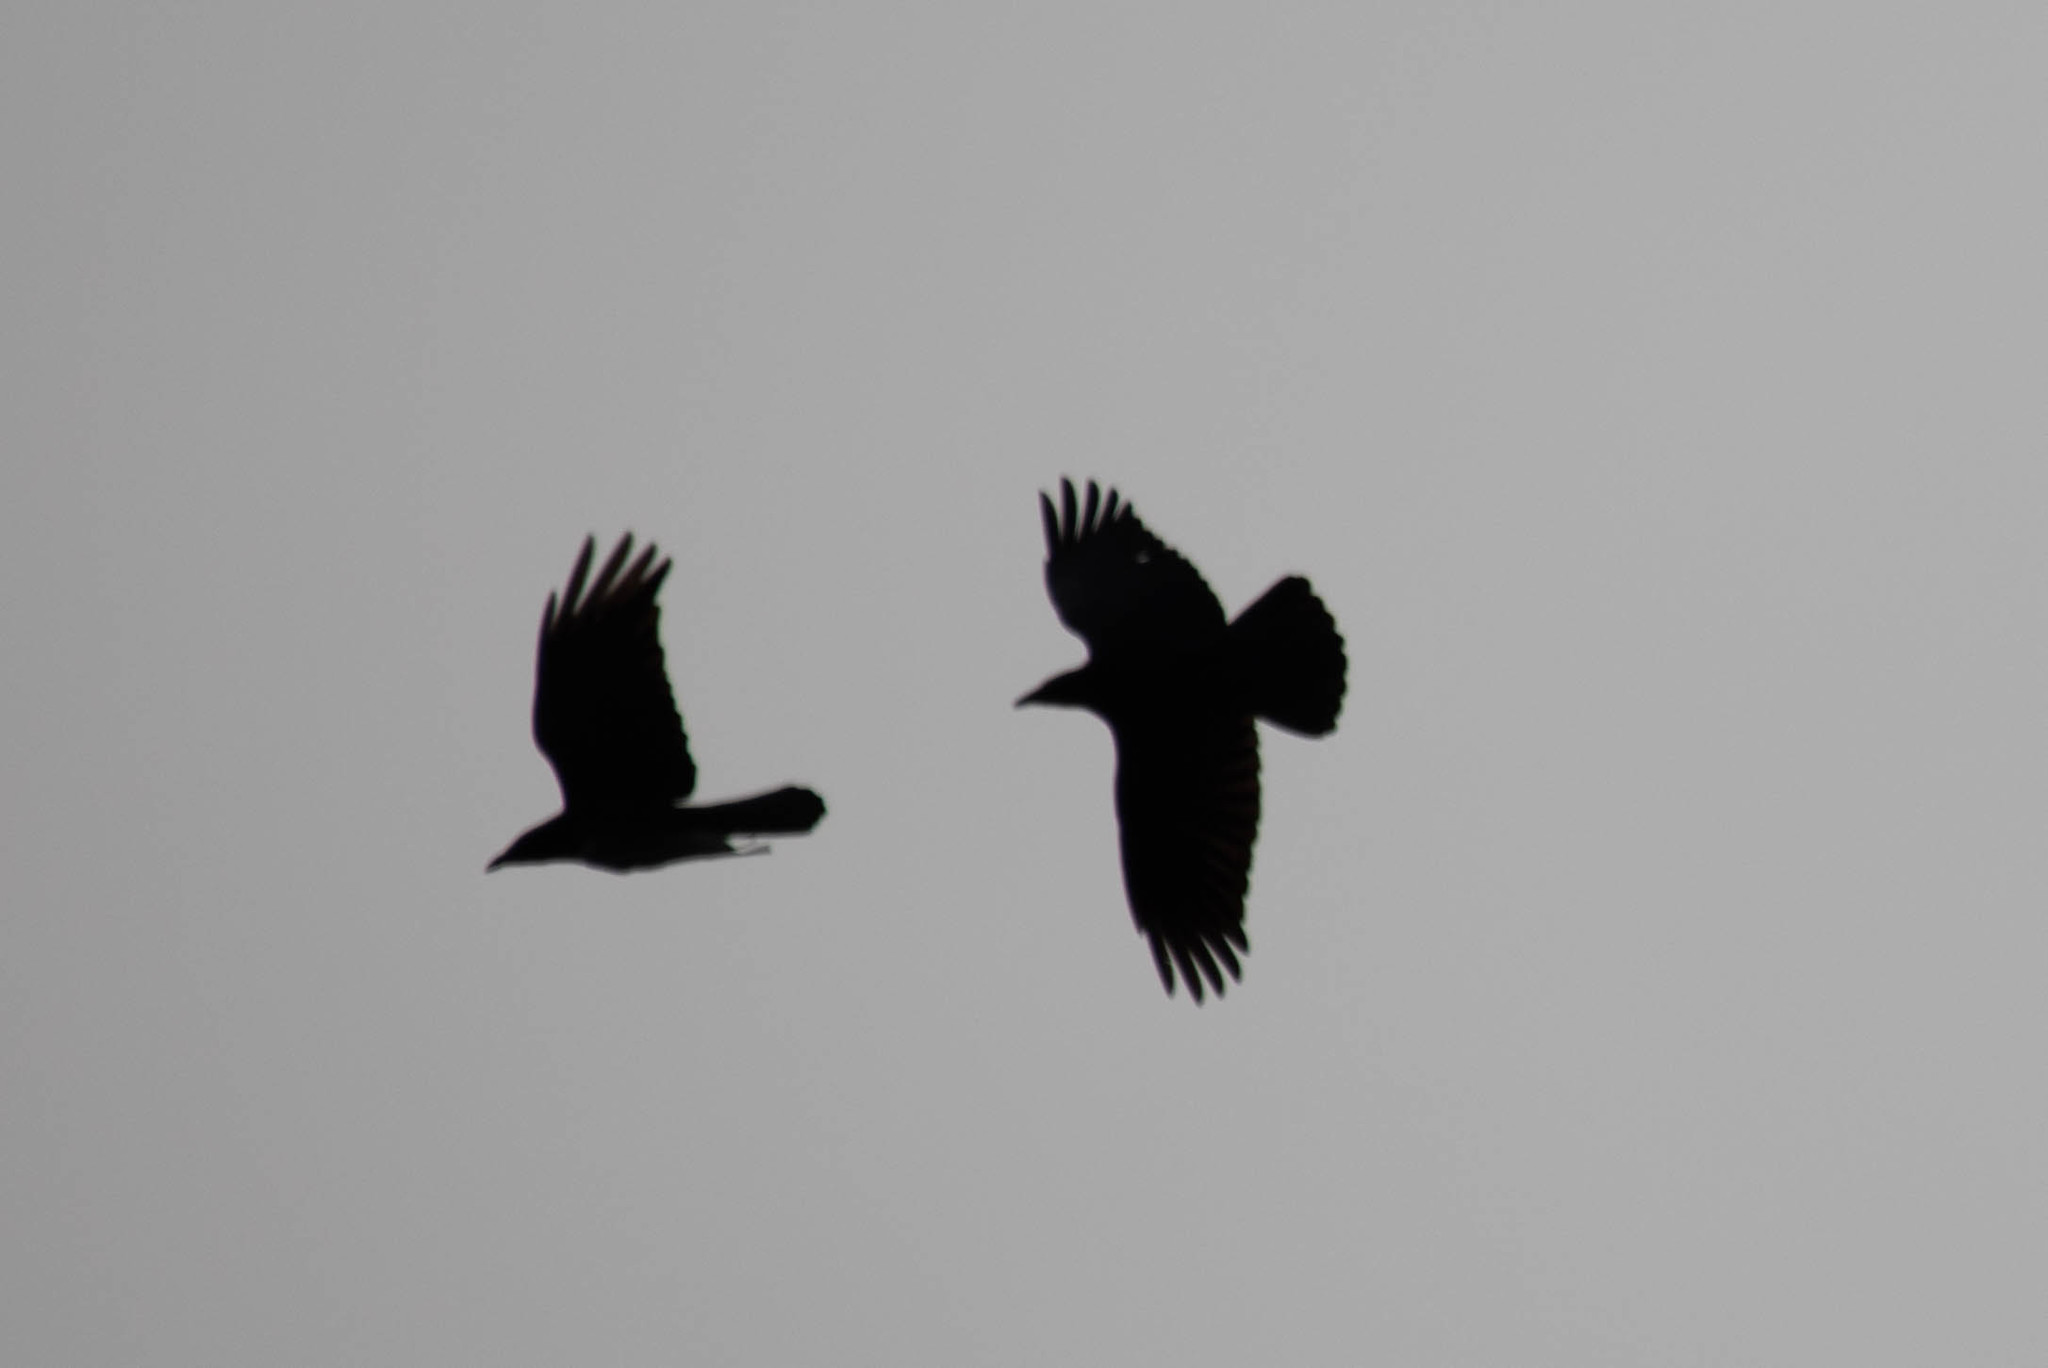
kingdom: Animalia
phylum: Chordata
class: Aves
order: Passeriformes
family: Corvidae
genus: Corvus
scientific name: Corvus brachyrhynchos
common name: American crow
